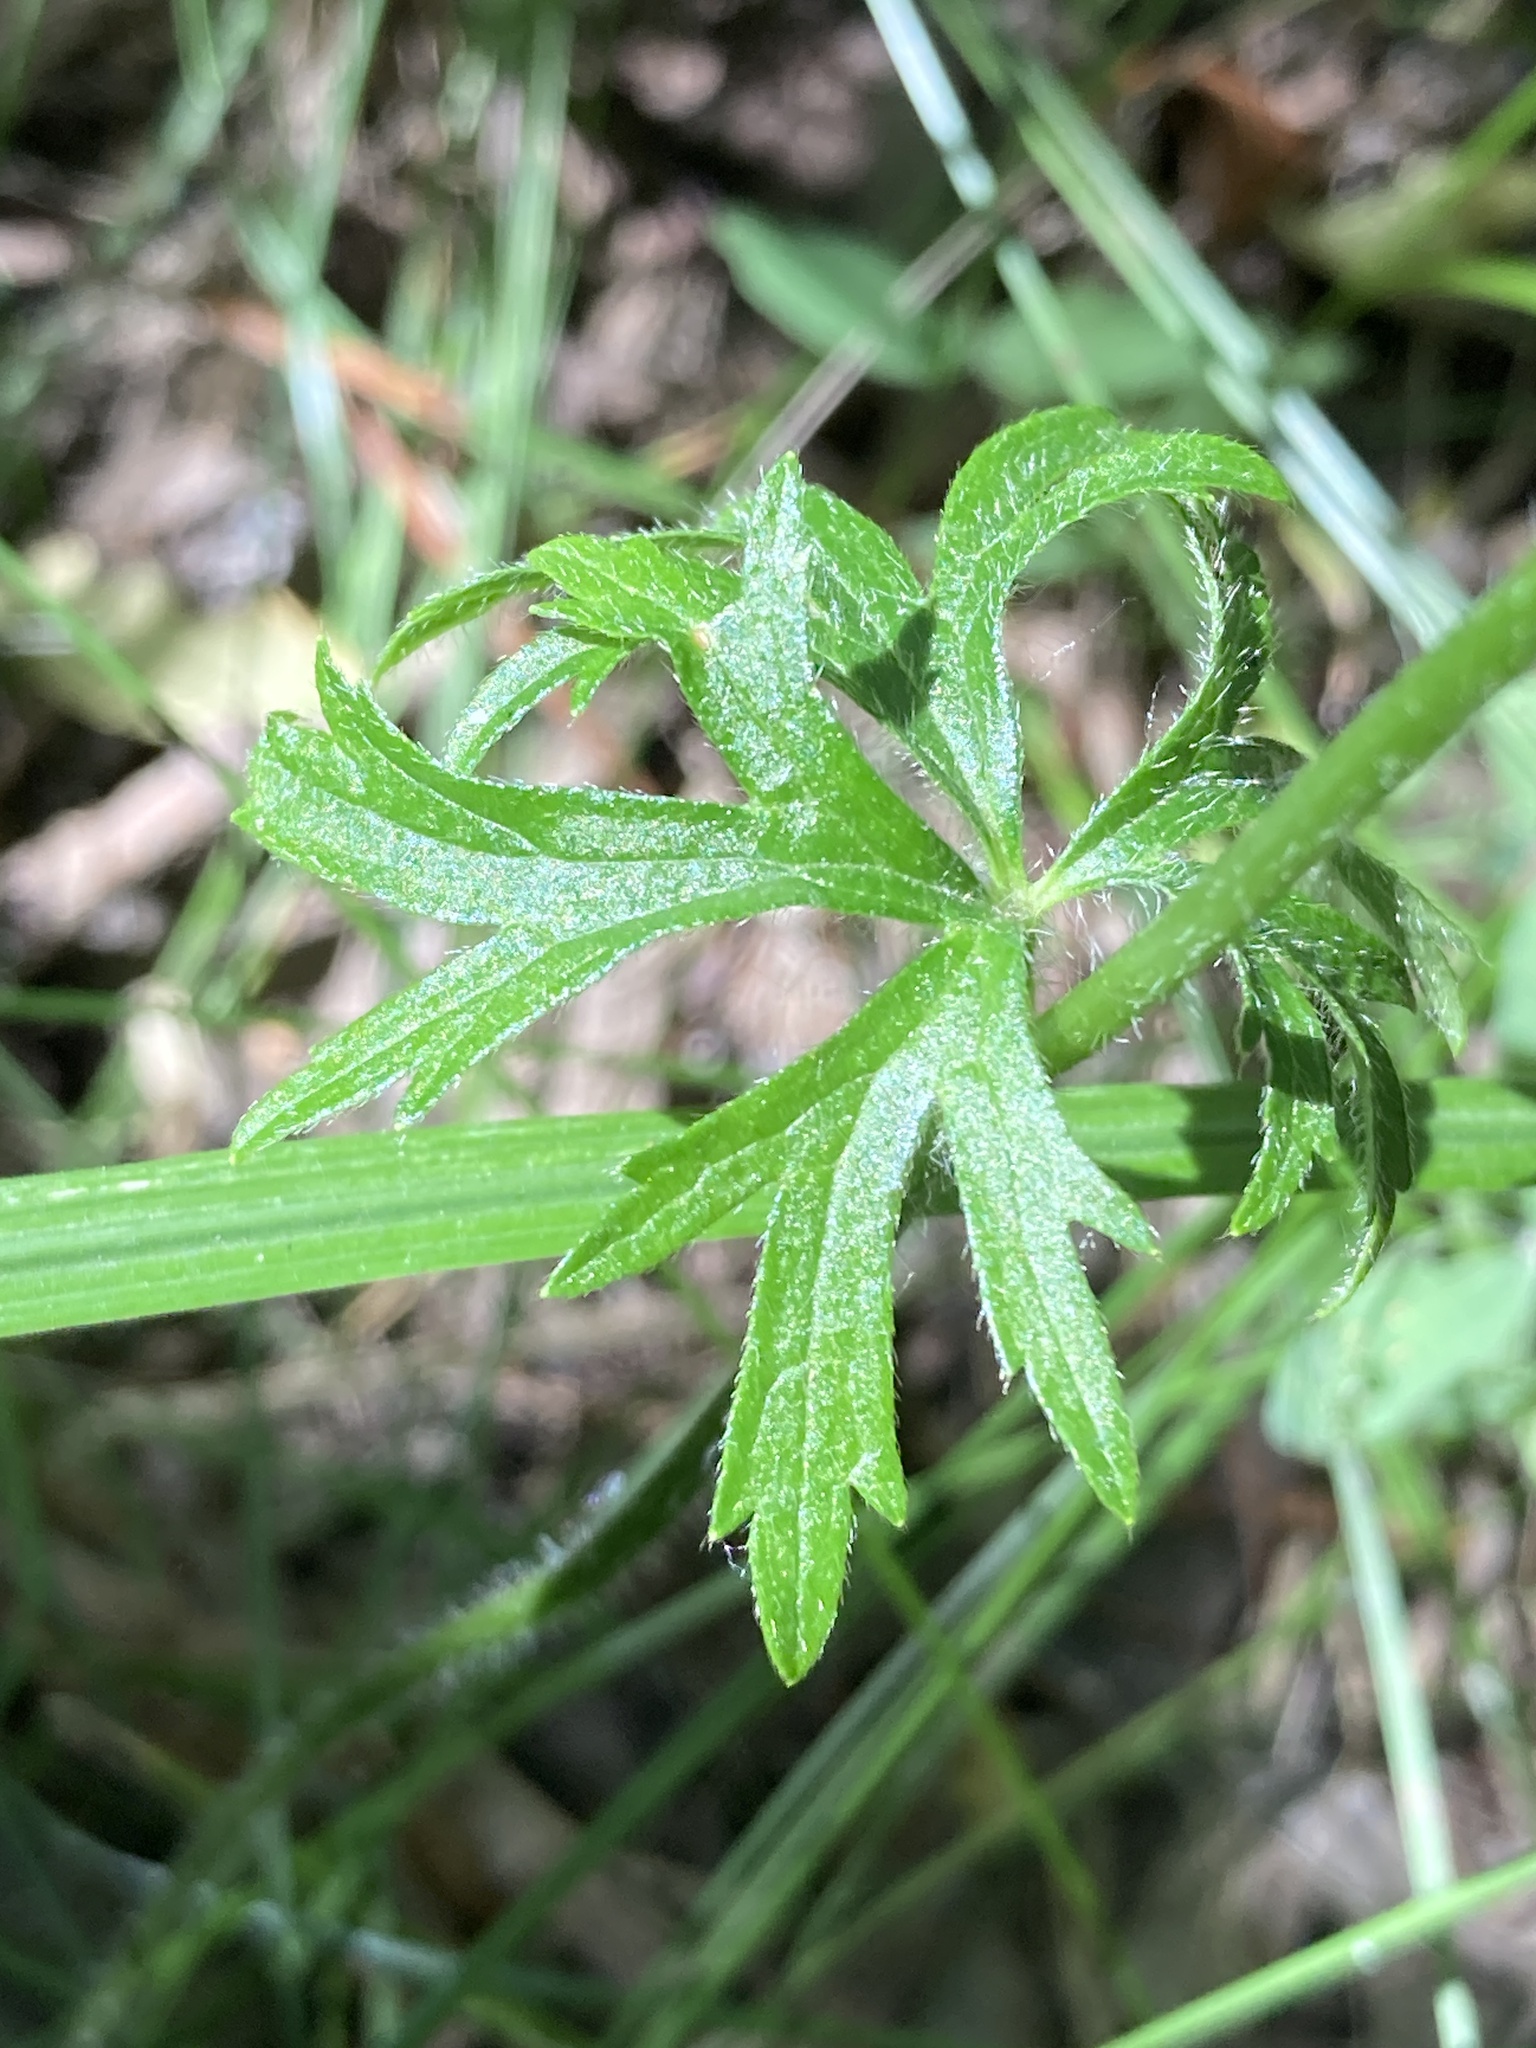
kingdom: Plantae
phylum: Tracheophyta
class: Magnoliopsida
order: Ranunculales
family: Ranunculaceae
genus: Ranunculus
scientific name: Ranunculus polyanthemos
